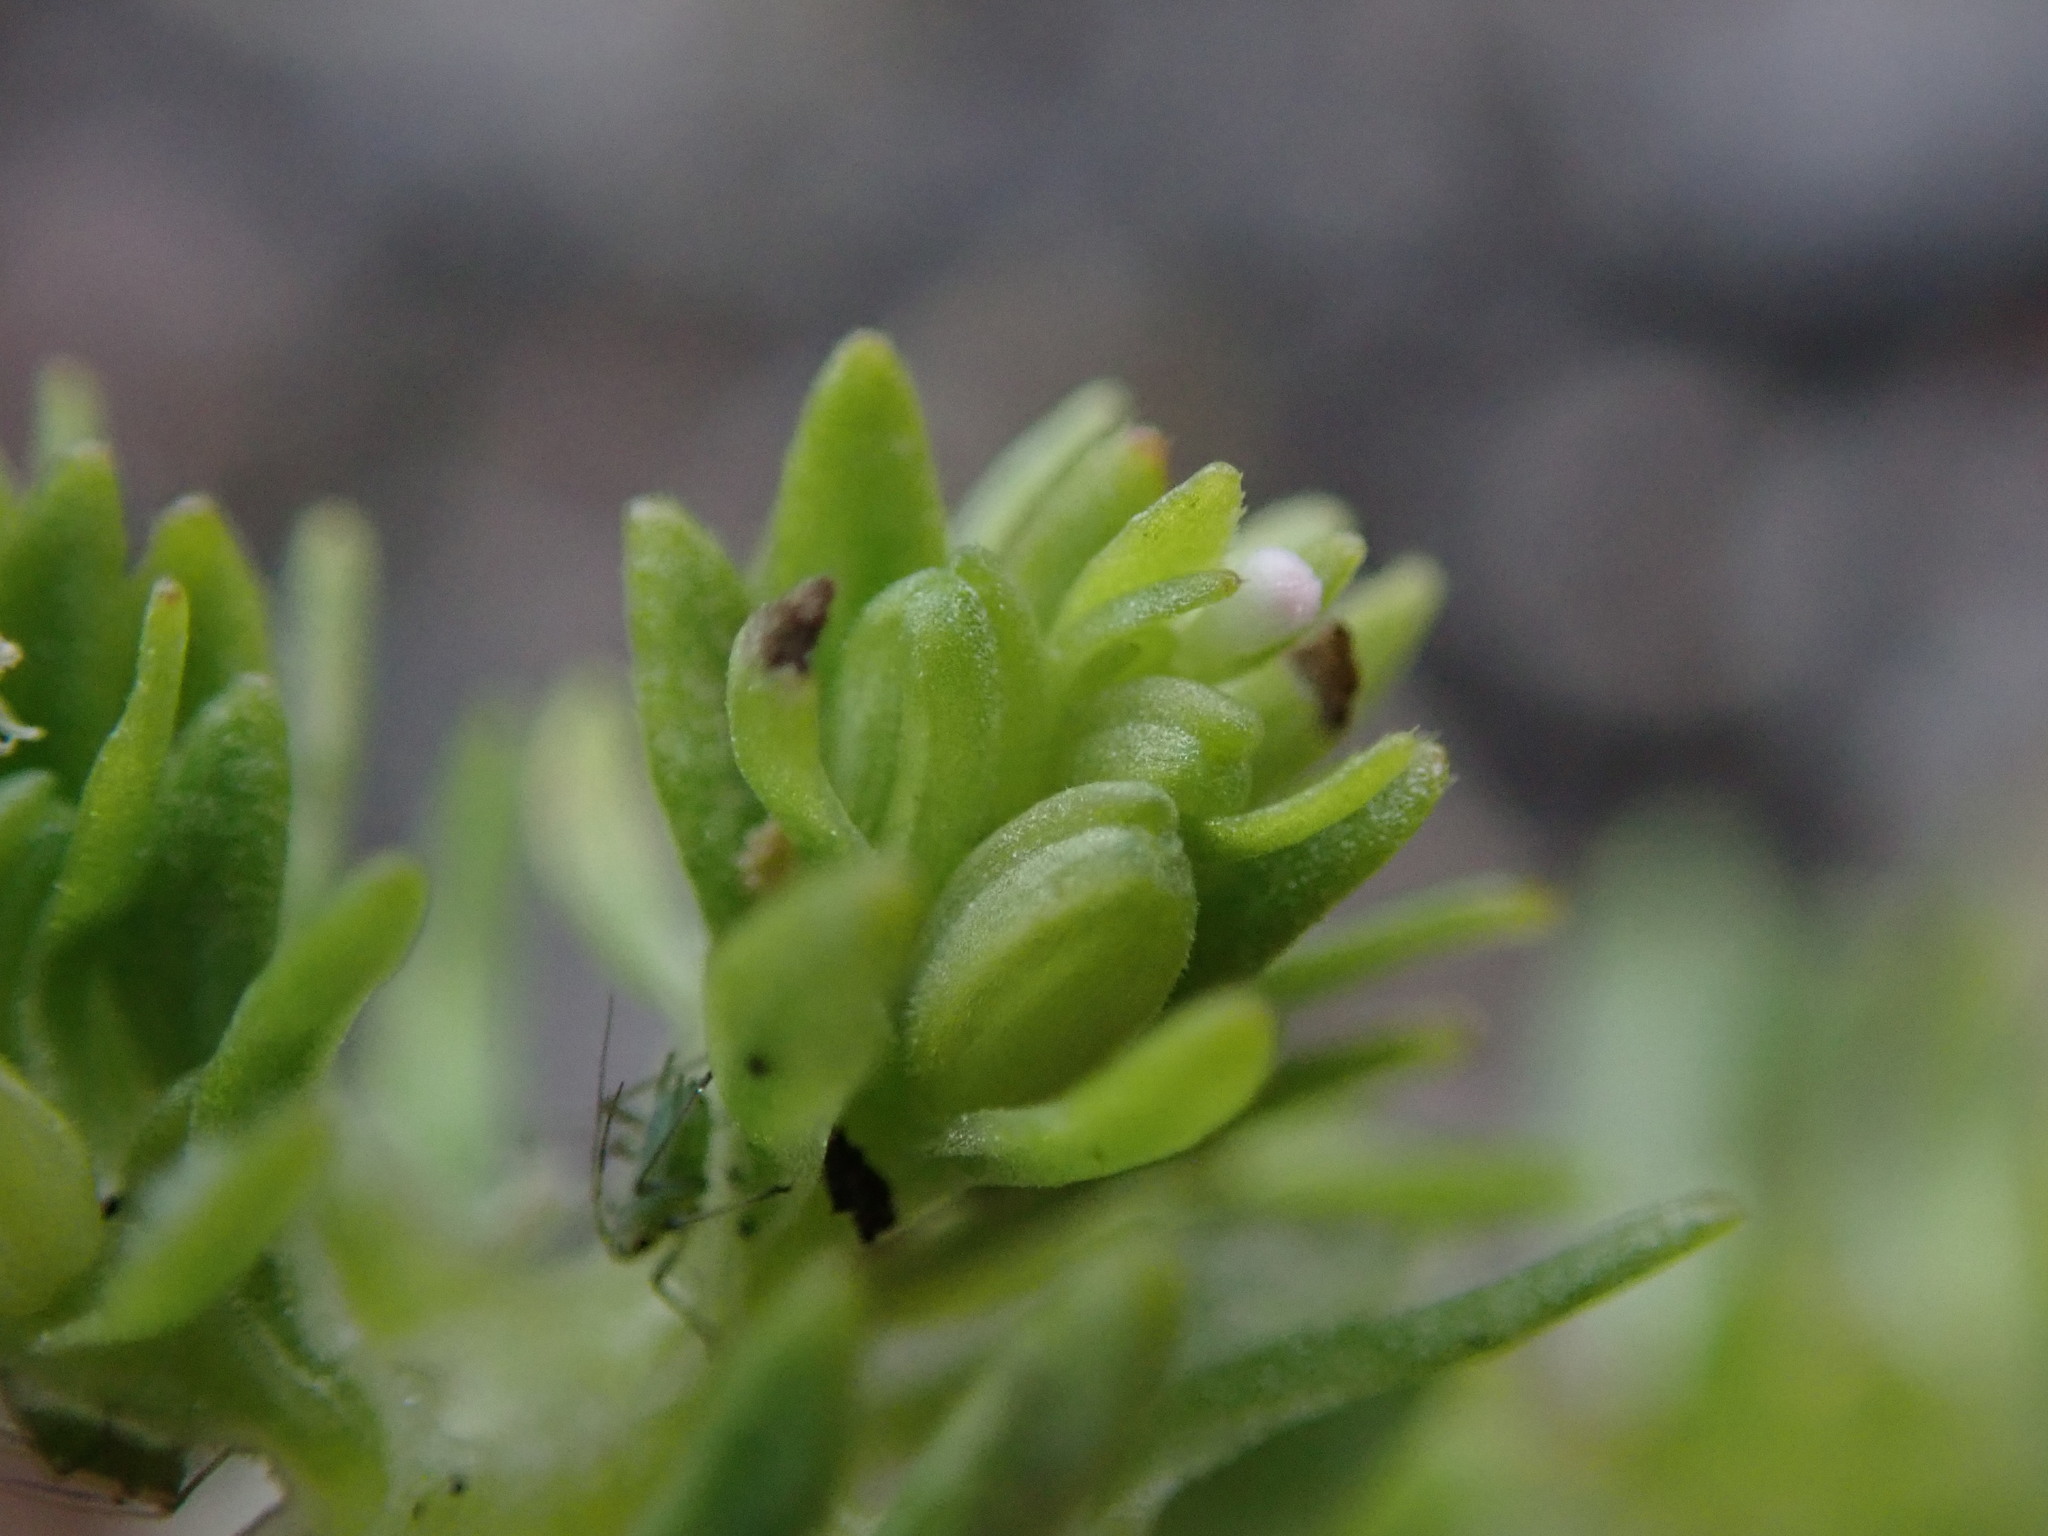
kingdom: Plantae
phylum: Tracheophyta
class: Magnoliopsida
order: Dipsacales
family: Caprifoliaceae
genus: Valerianella
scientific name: Valerianella carinata
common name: Keeled-fruited cornsalad
